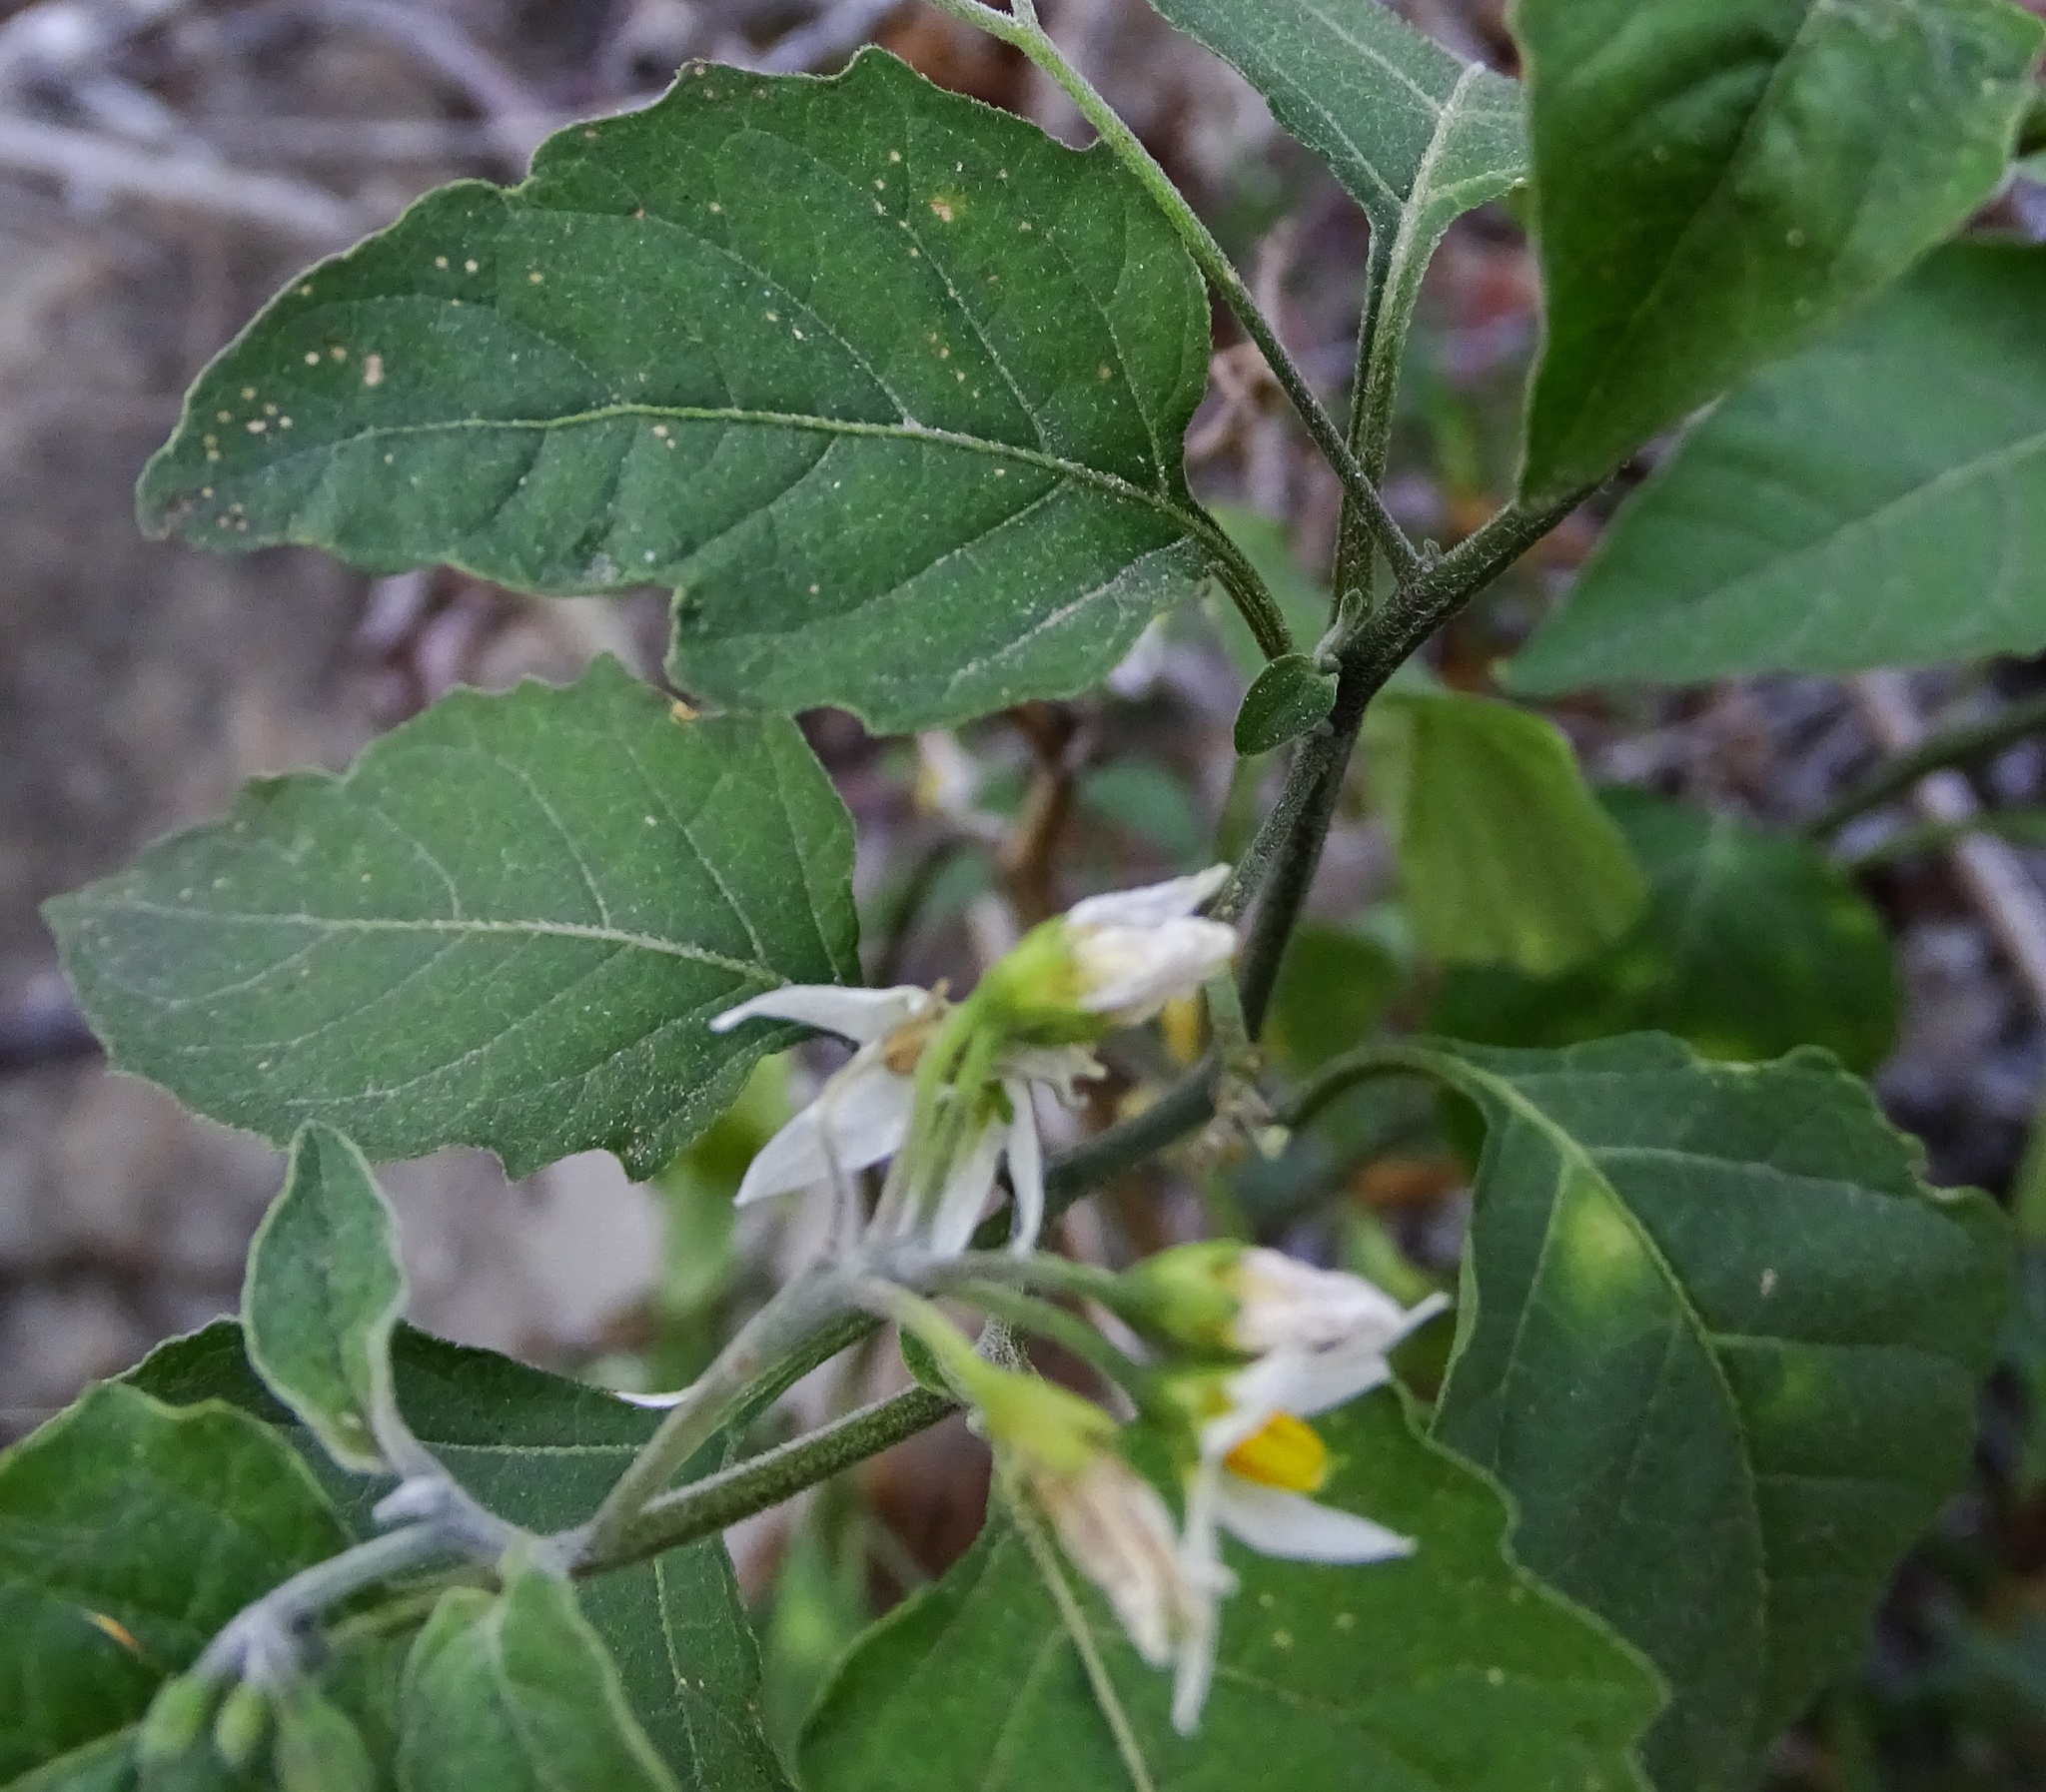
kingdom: Plantae
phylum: Tracheophyta
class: Magnoliopsida
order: Solanales
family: Solanaceae
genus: Solanum
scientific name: Solanum douglasii
